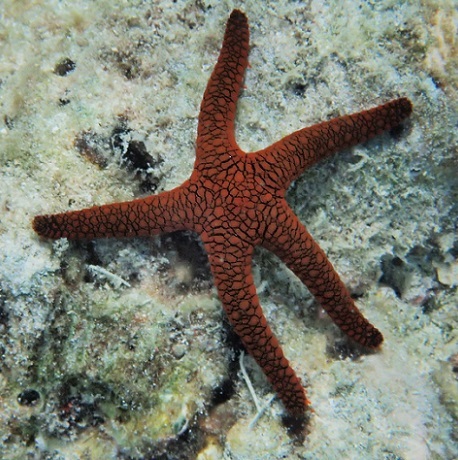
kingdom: Animalia
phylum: Echinodermata
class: Asteroidea
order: Valvatida
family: Goniasteridae
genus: Fromia
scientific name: Fromia indica
